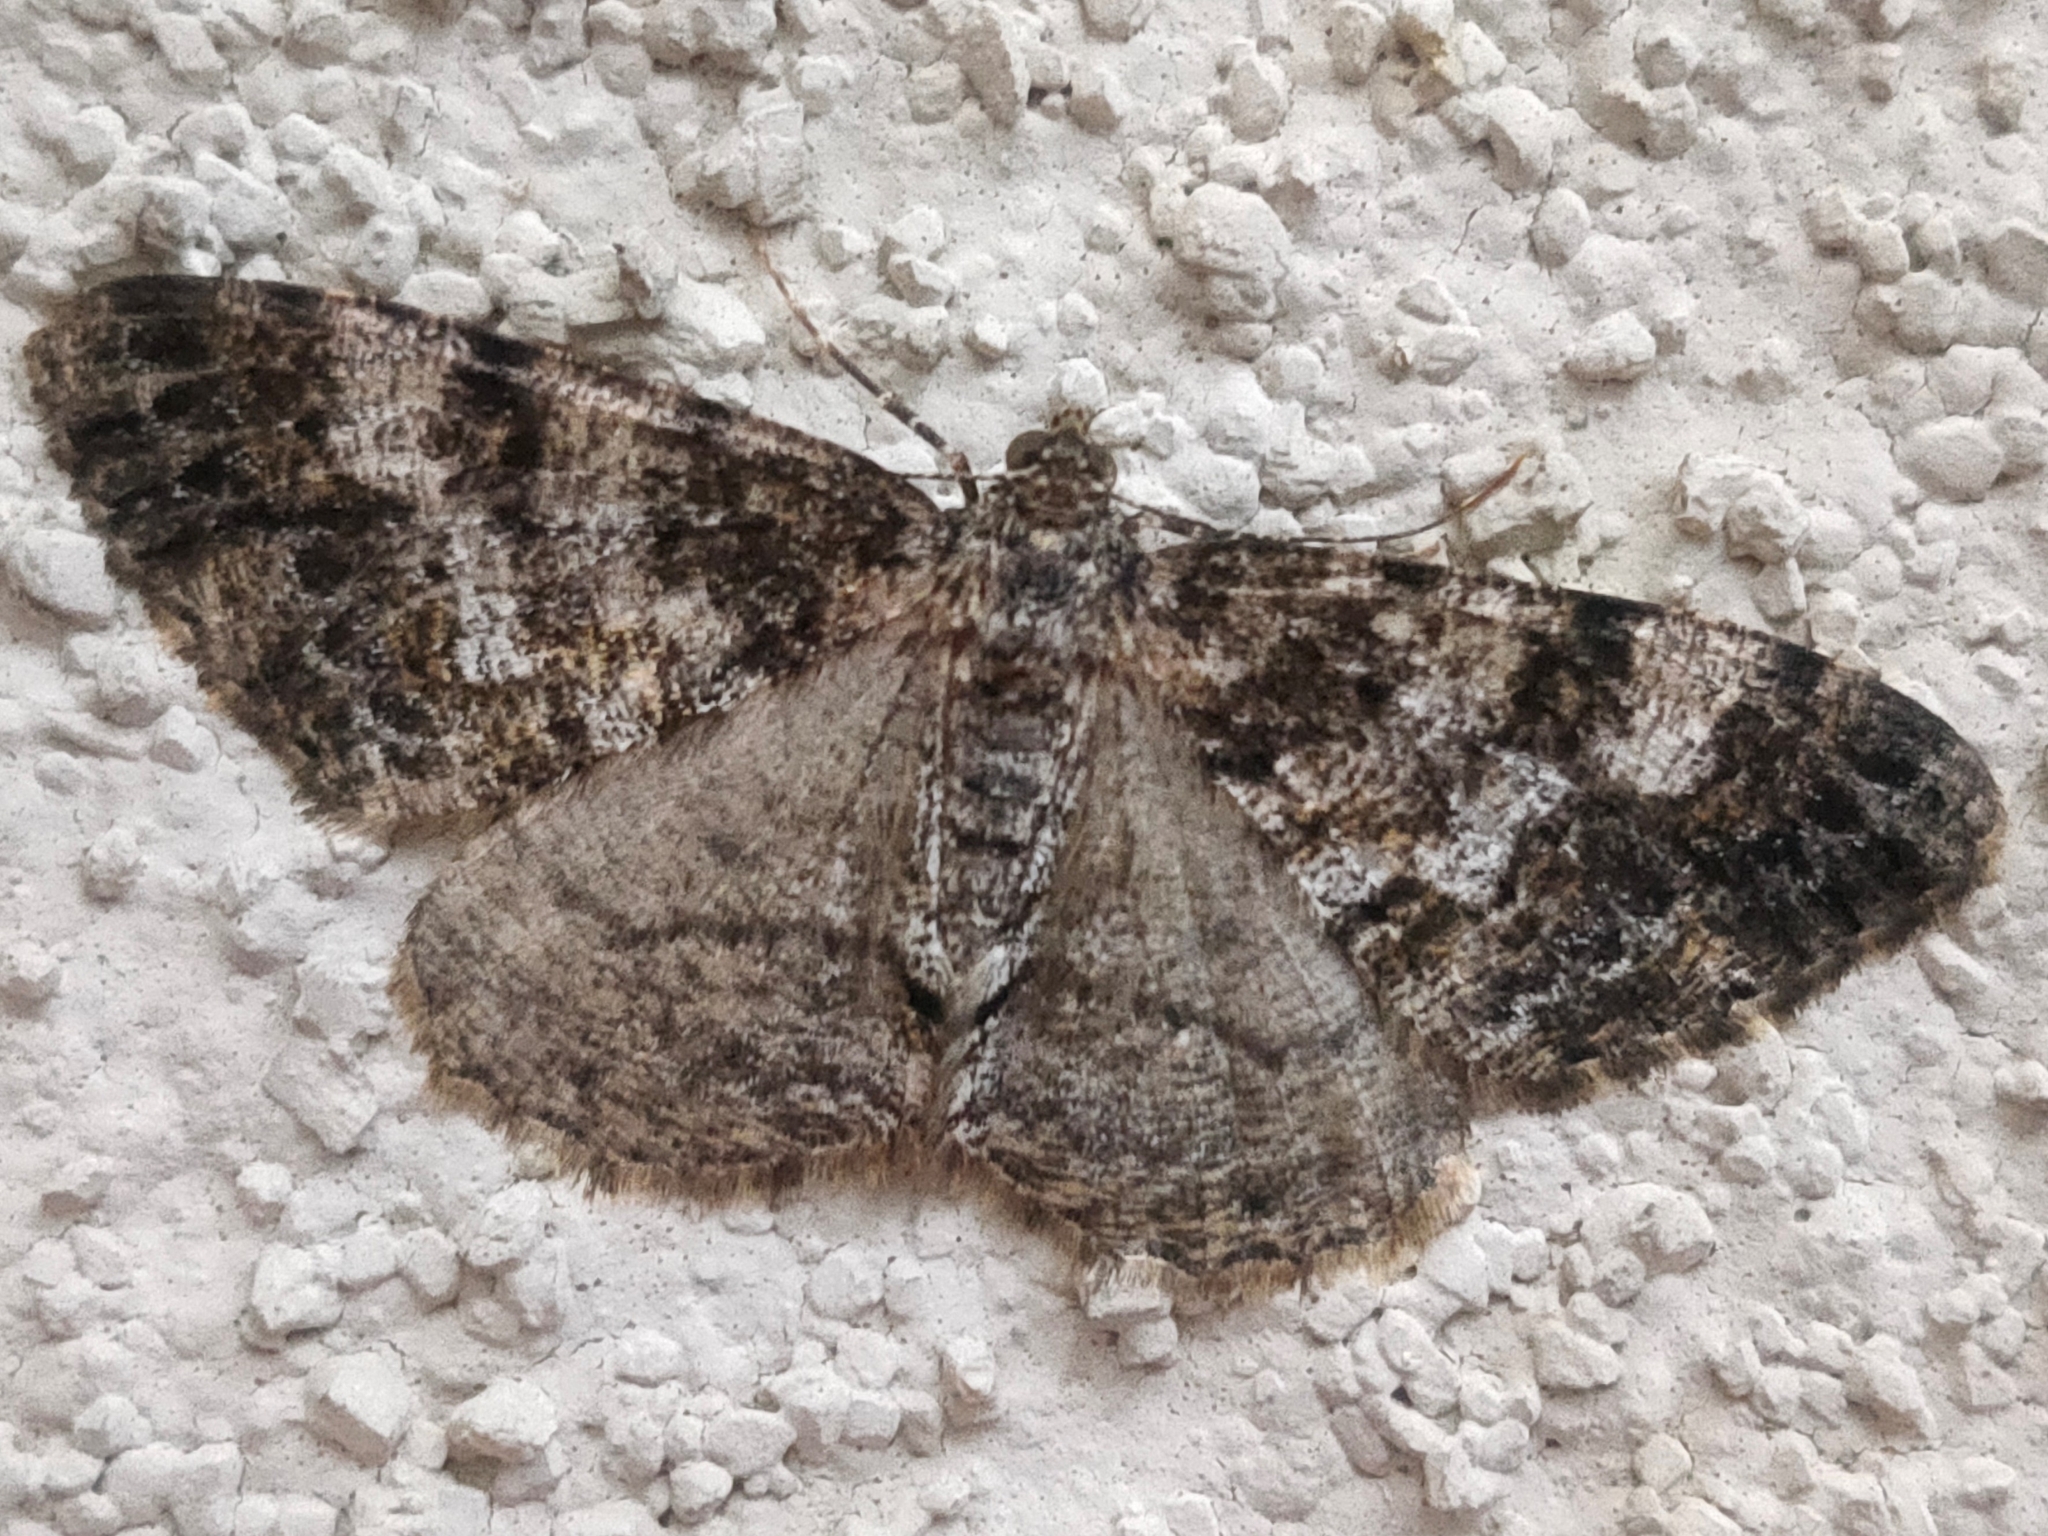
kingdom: Animalia
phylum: Arthropoda
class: Insecta
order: Lepidoptera
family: Geometridae
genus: Alcis
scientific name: Alcis angulifera
